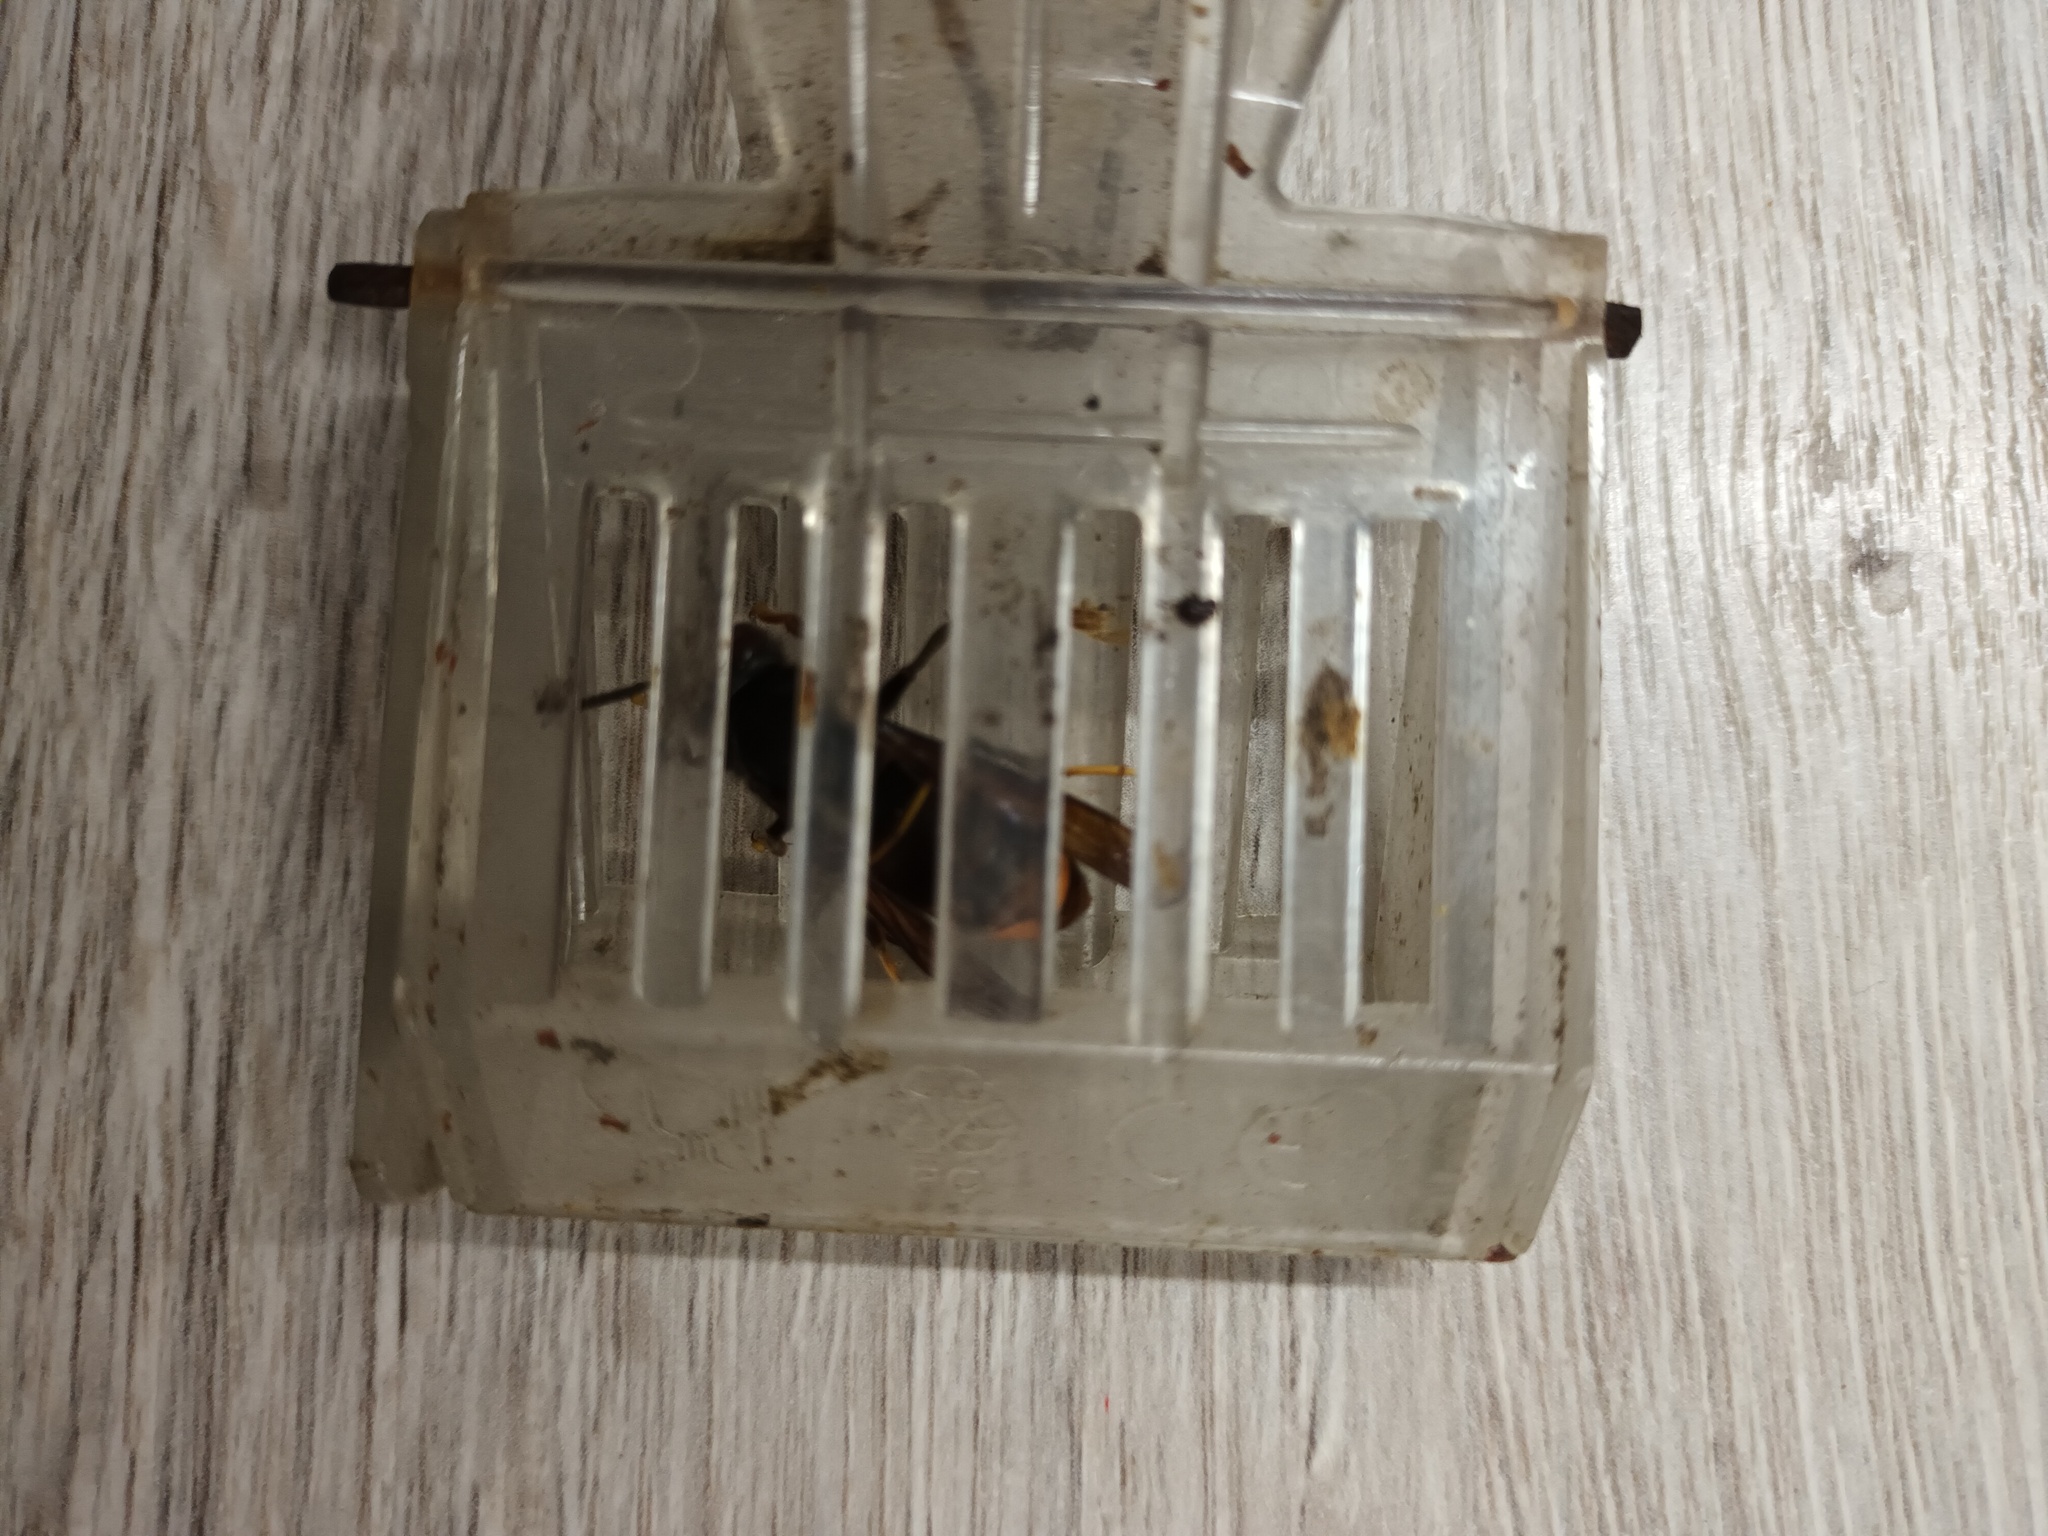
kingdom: Animalia
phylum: Arthropoda
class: Insecta
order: Hymenoptera
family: Vespidae
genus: Vespa
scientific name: Vespa velutina
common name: Asian hornet
